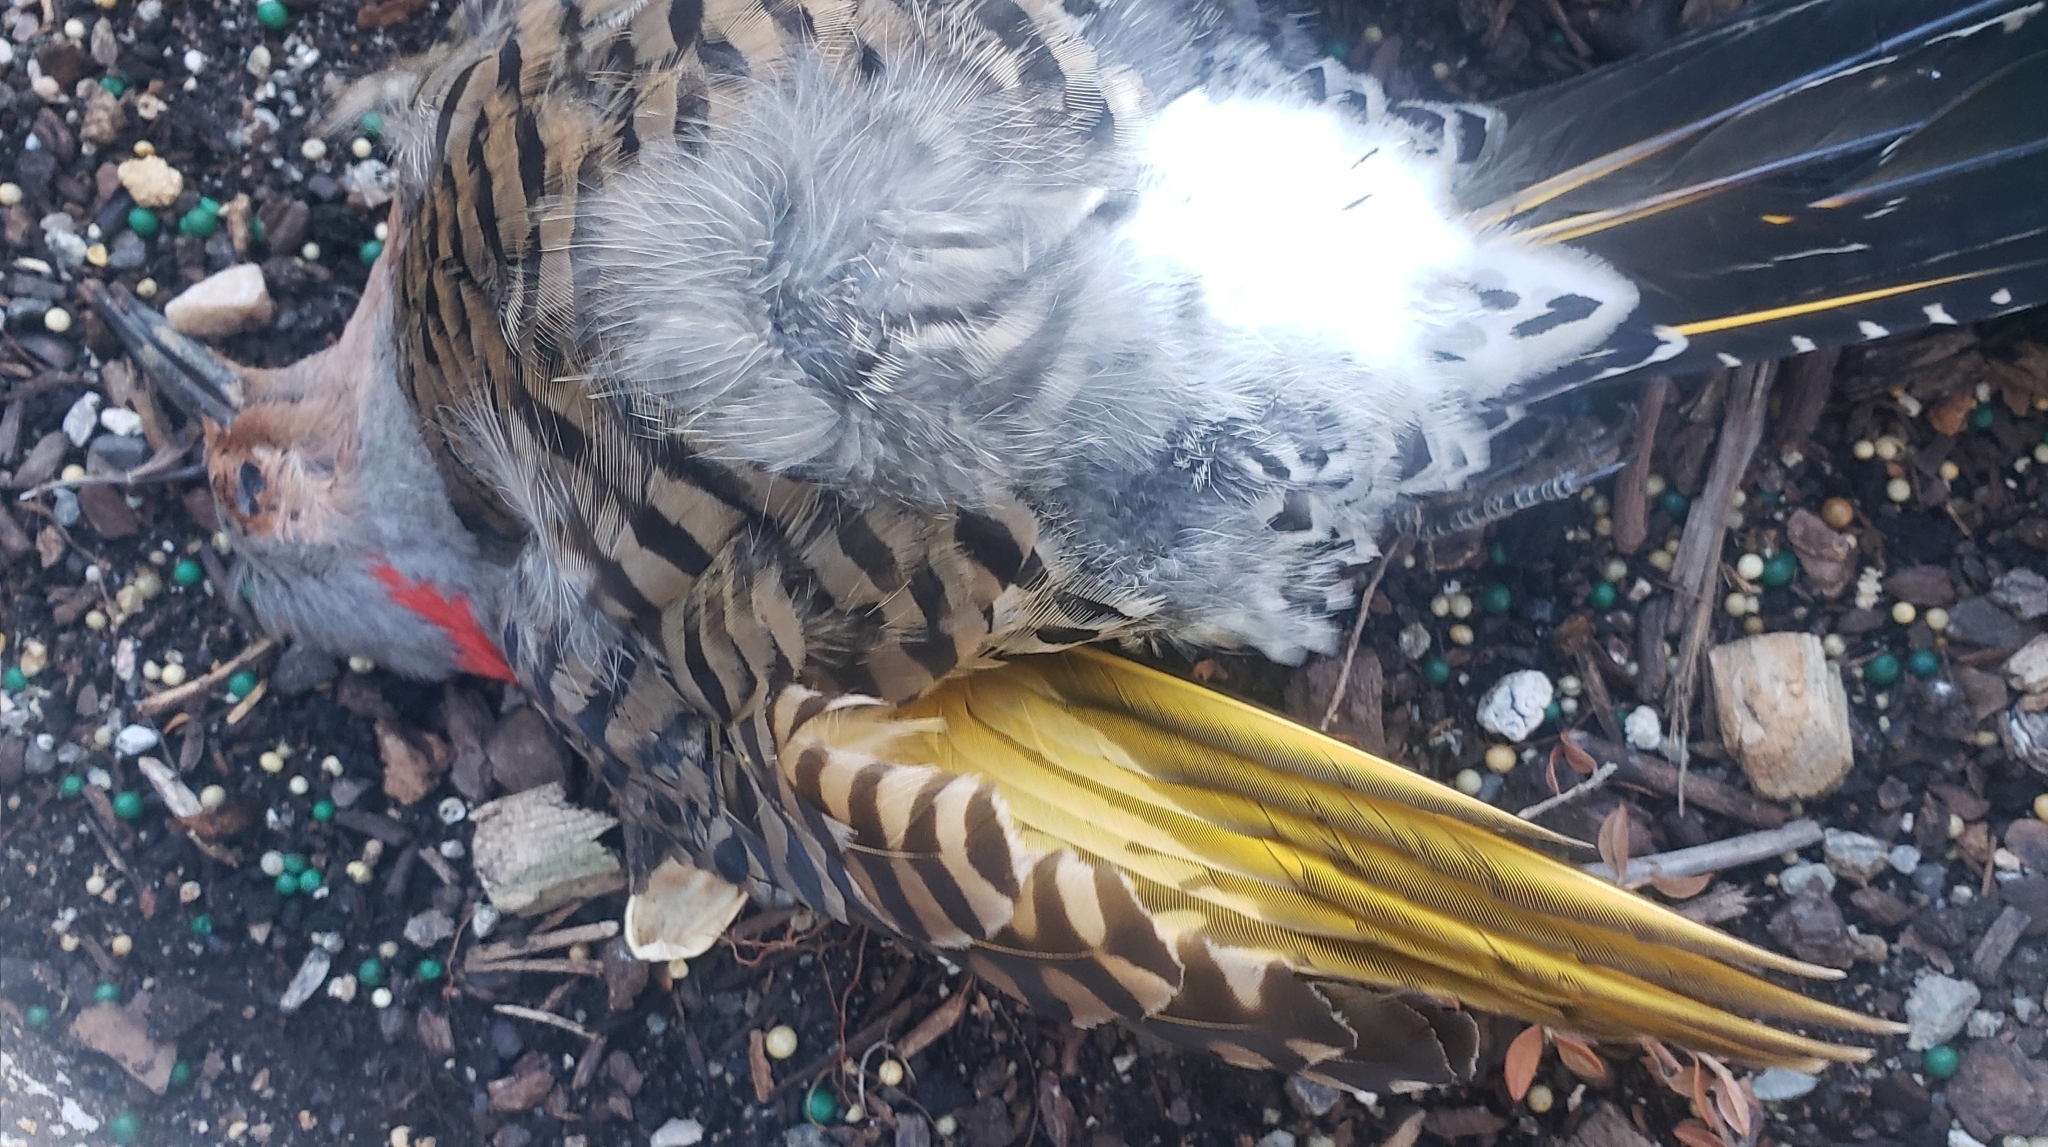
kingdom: Animalia
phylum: Chordata
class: Aves
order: Piciformes
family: Picidae
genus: Colaptes
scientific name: Colaptes auratus
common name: Northern flicker
